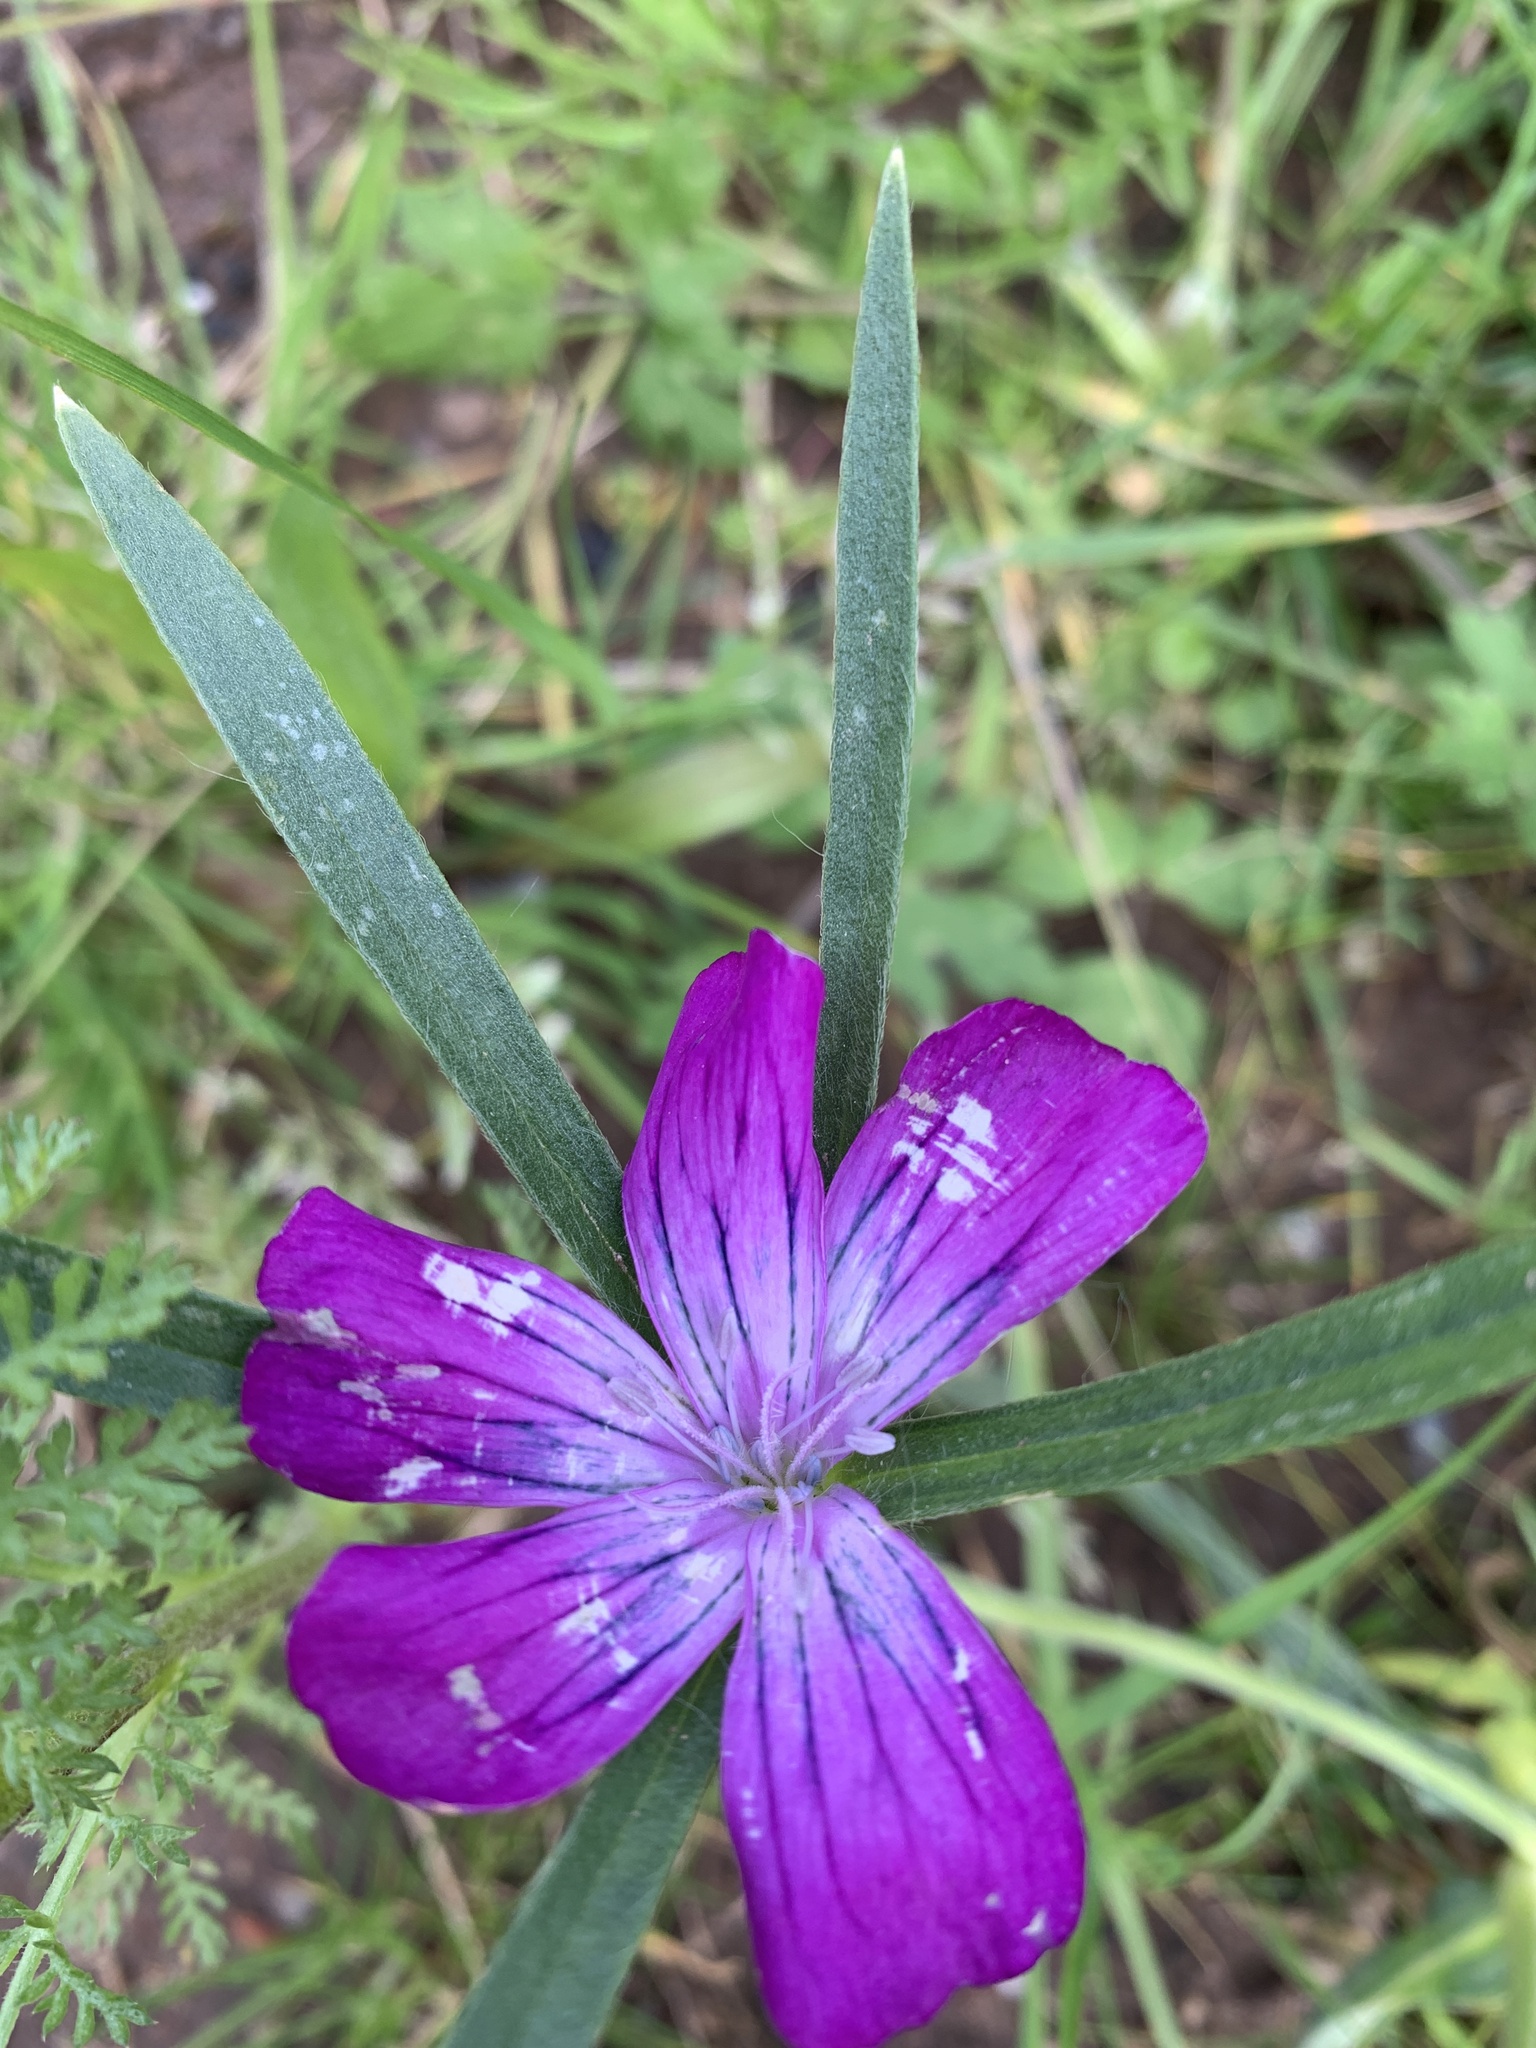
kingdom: Plantae
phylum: Tracheophyta
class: Magnoliopsida
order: Caryophyllales
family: Caryophyllaceae
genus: Agrostemma
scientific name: Agrostemma githago
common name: Common corncockle
